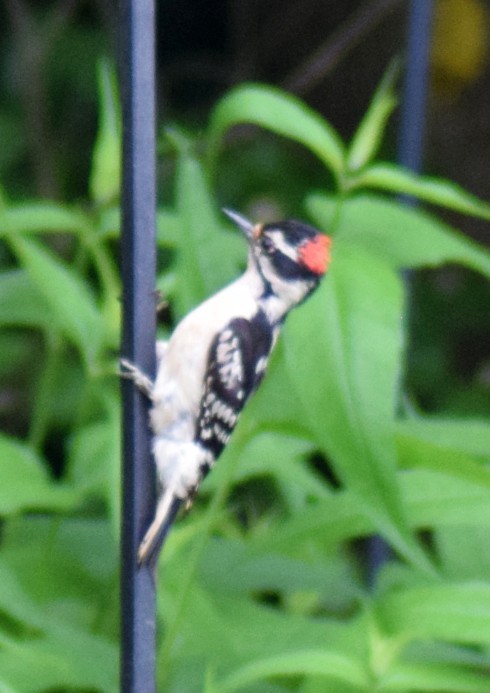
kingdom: Animalia
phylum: Chordata
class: Aves
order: Piciformes
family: Picidae
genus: Dryobates
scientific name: Dryobates pubescens
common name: Downy woodpecker
